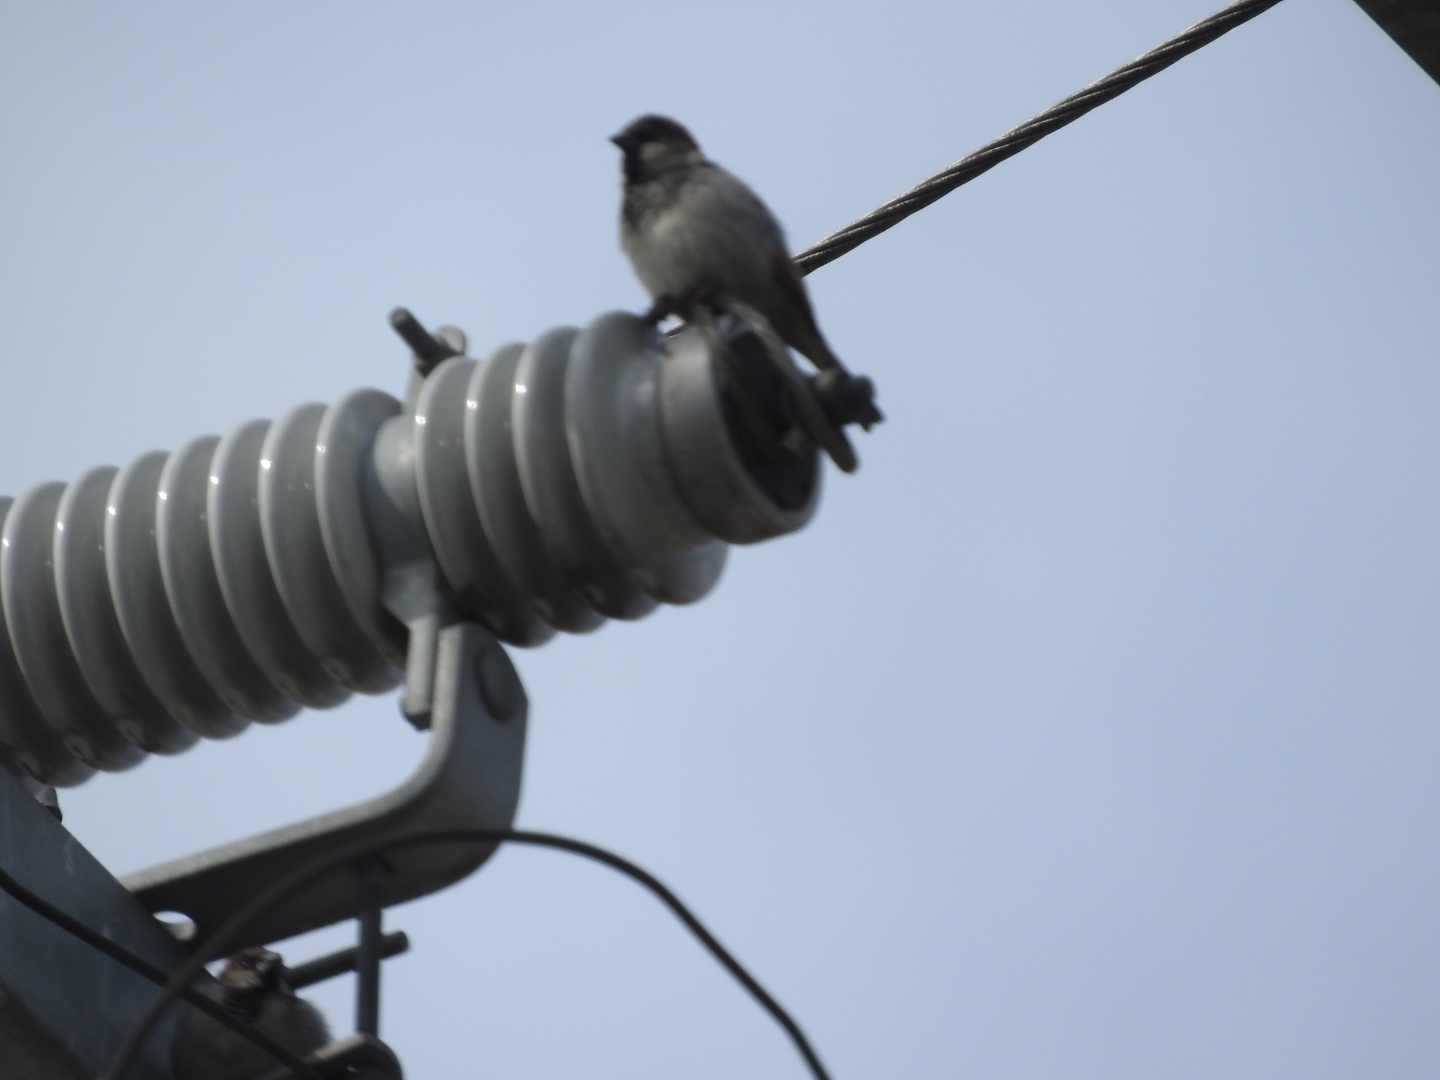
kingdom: Animalia
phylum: Chordata
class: Aves
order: Passeriformes
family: Passeridae
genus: Passer
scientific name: Passer domesticus
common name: House sparrow
